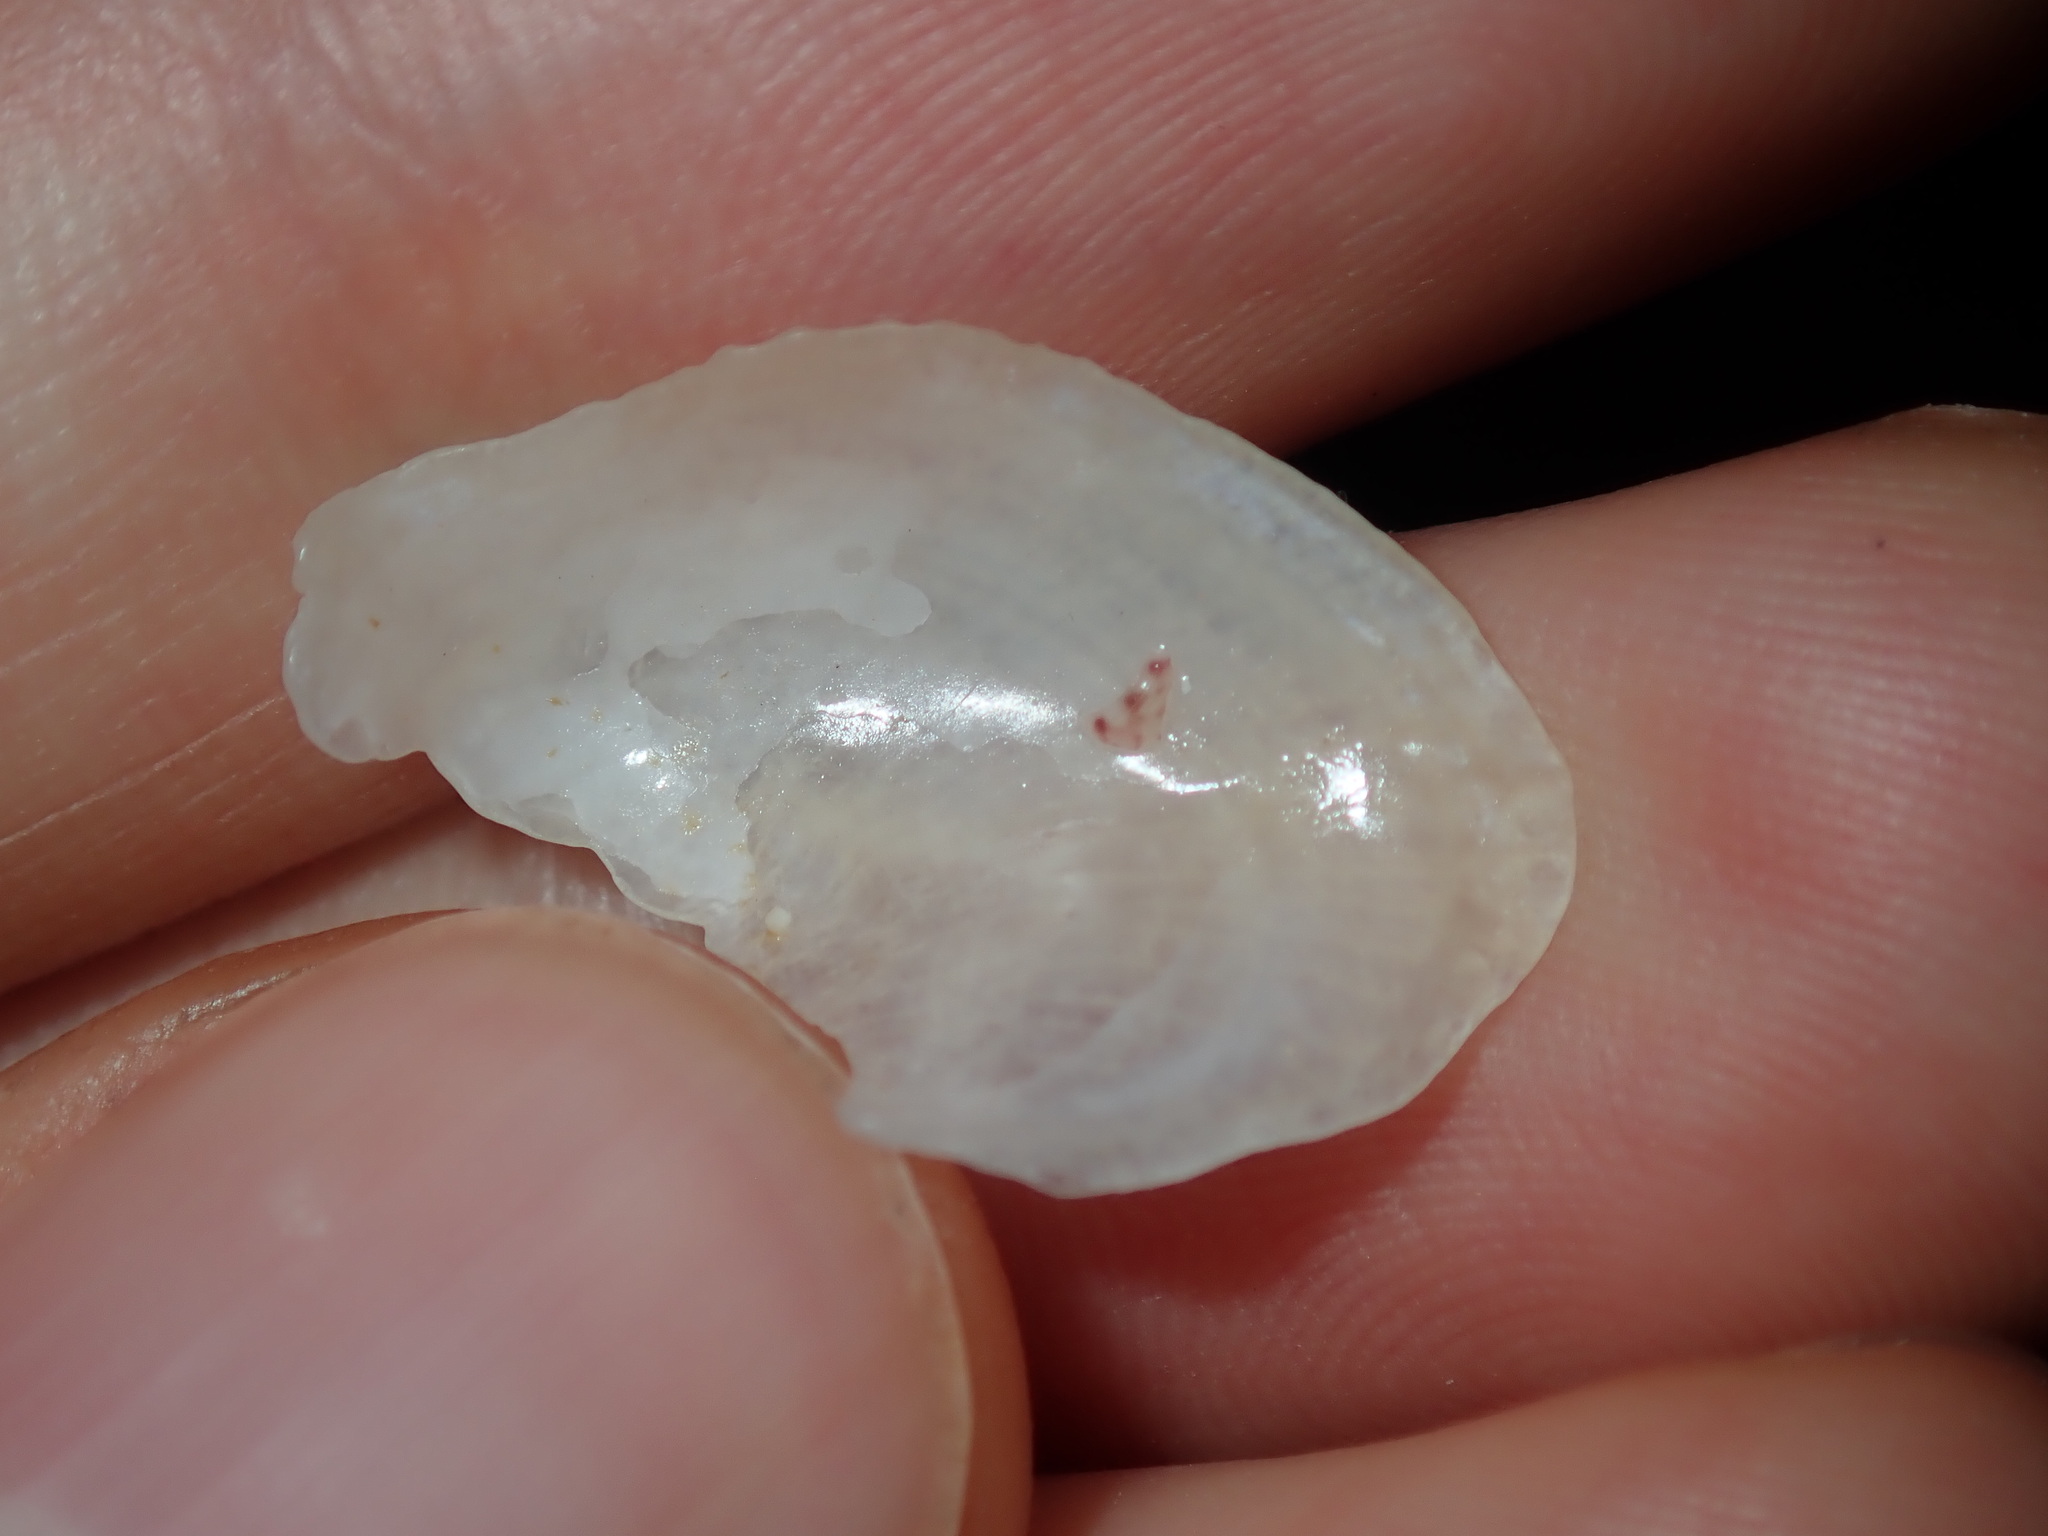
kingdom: Animalia
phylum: Mollusca
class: Bivalvia
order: Ostreida
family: Vulsellidae
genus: Vulsella
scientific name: Vulsella ovata
